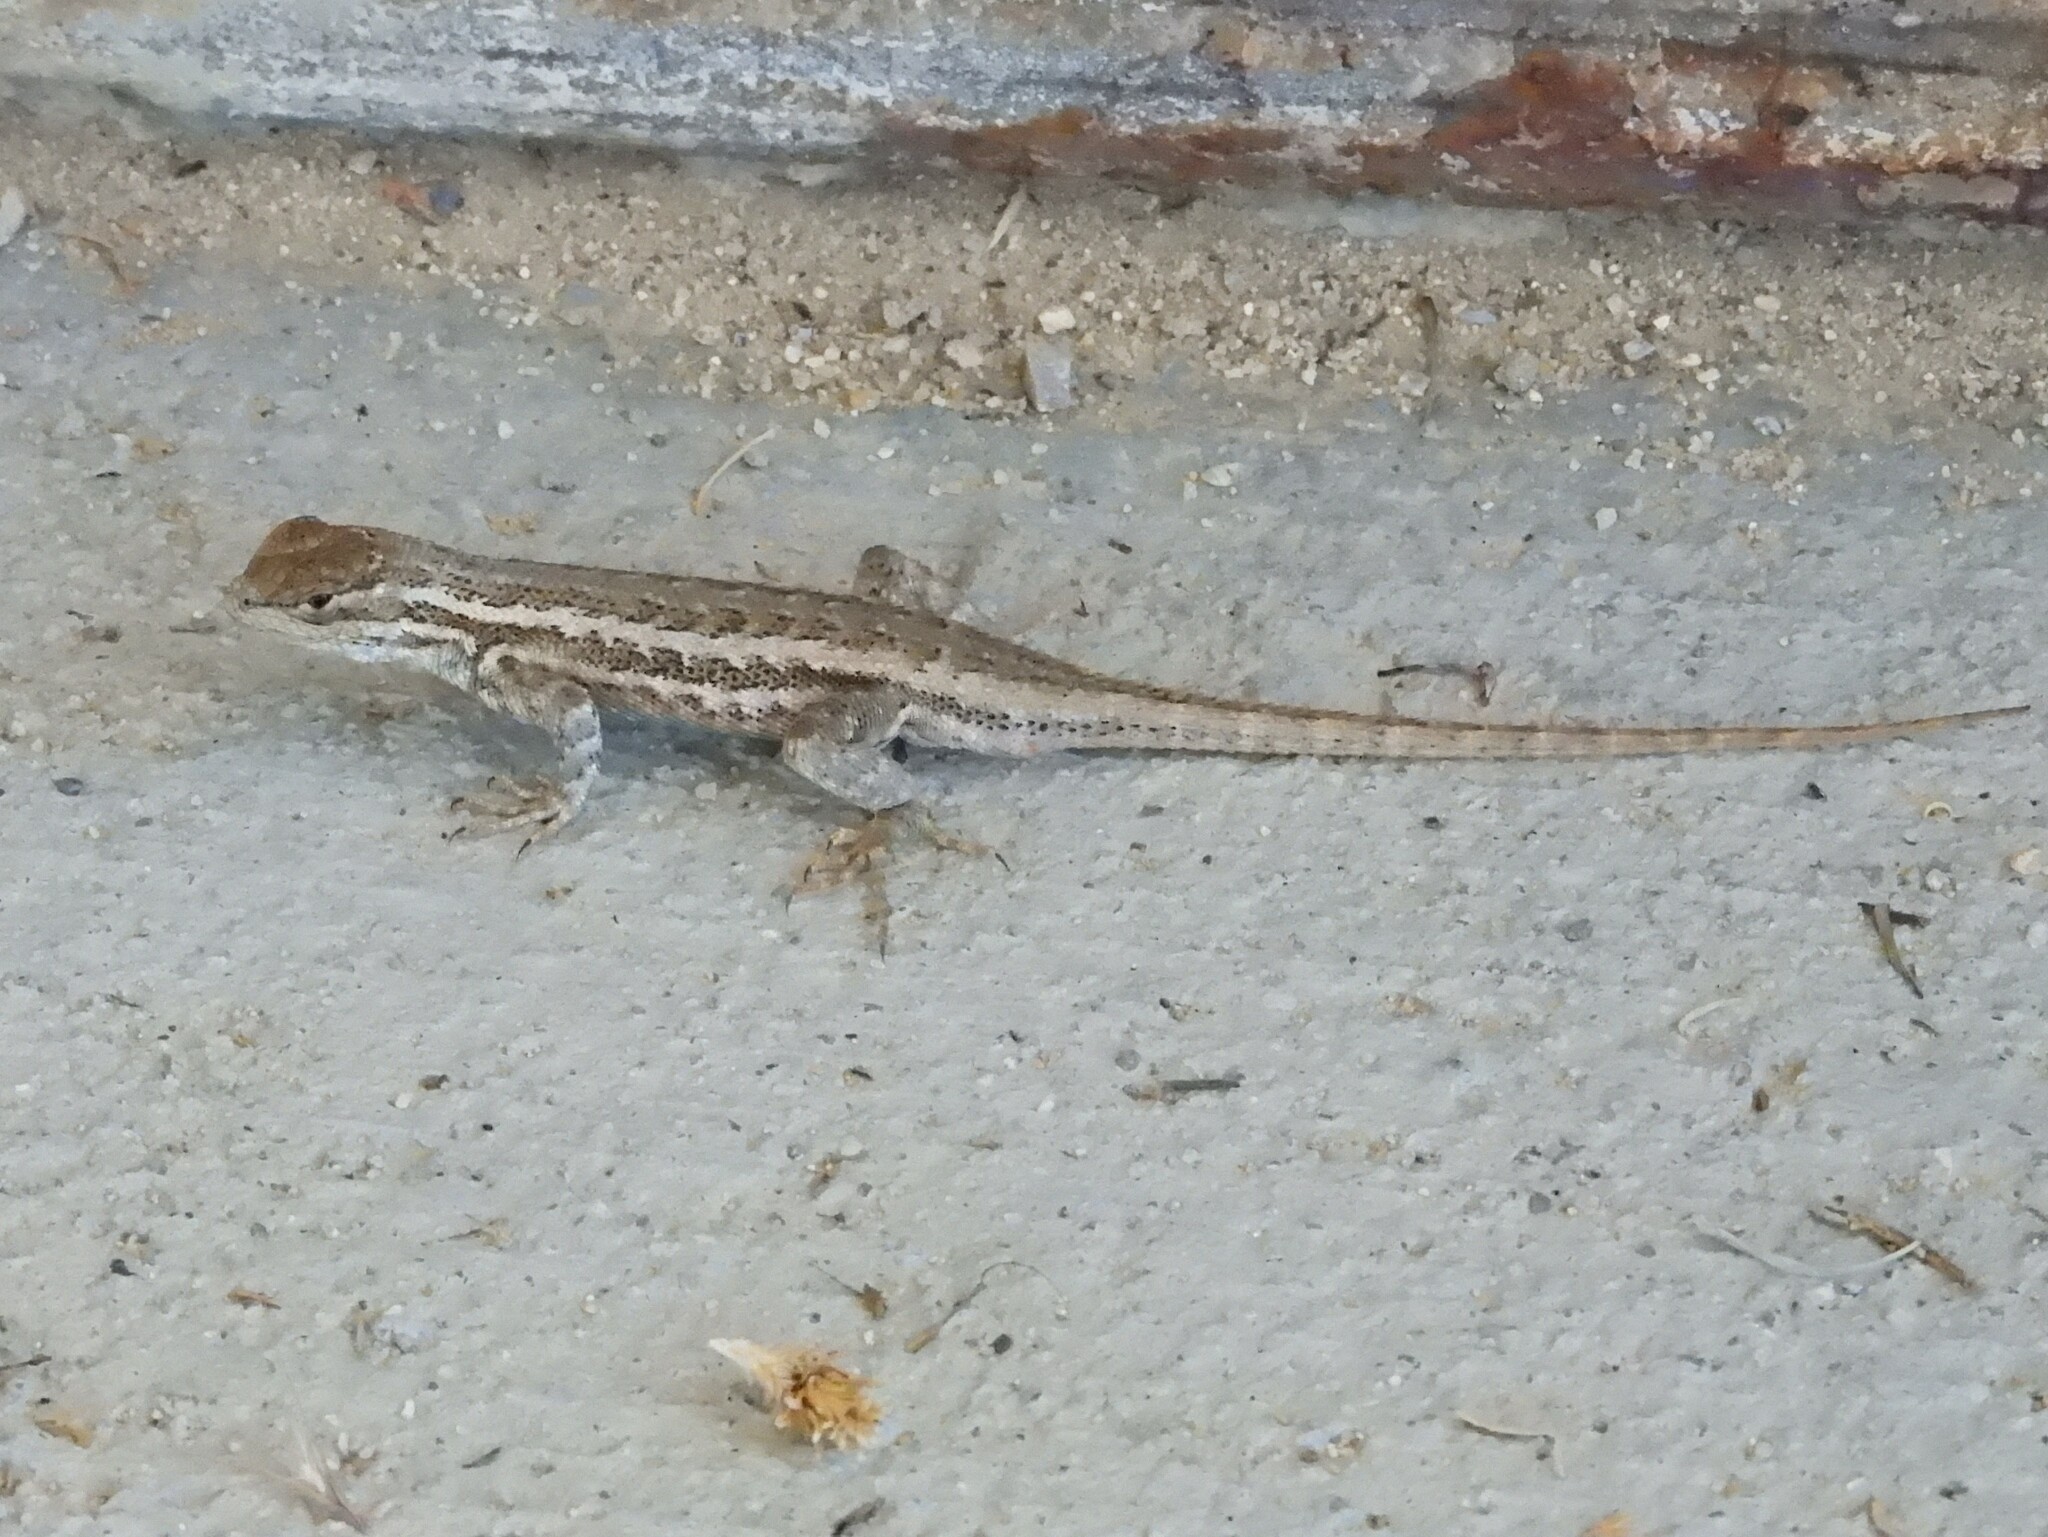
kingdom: Animalia
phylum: Chordata
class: Squamata
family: Phrynosomatidae
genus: Sceloporus
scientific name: Sceloporus graciosus
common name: Sagebrush lizard
